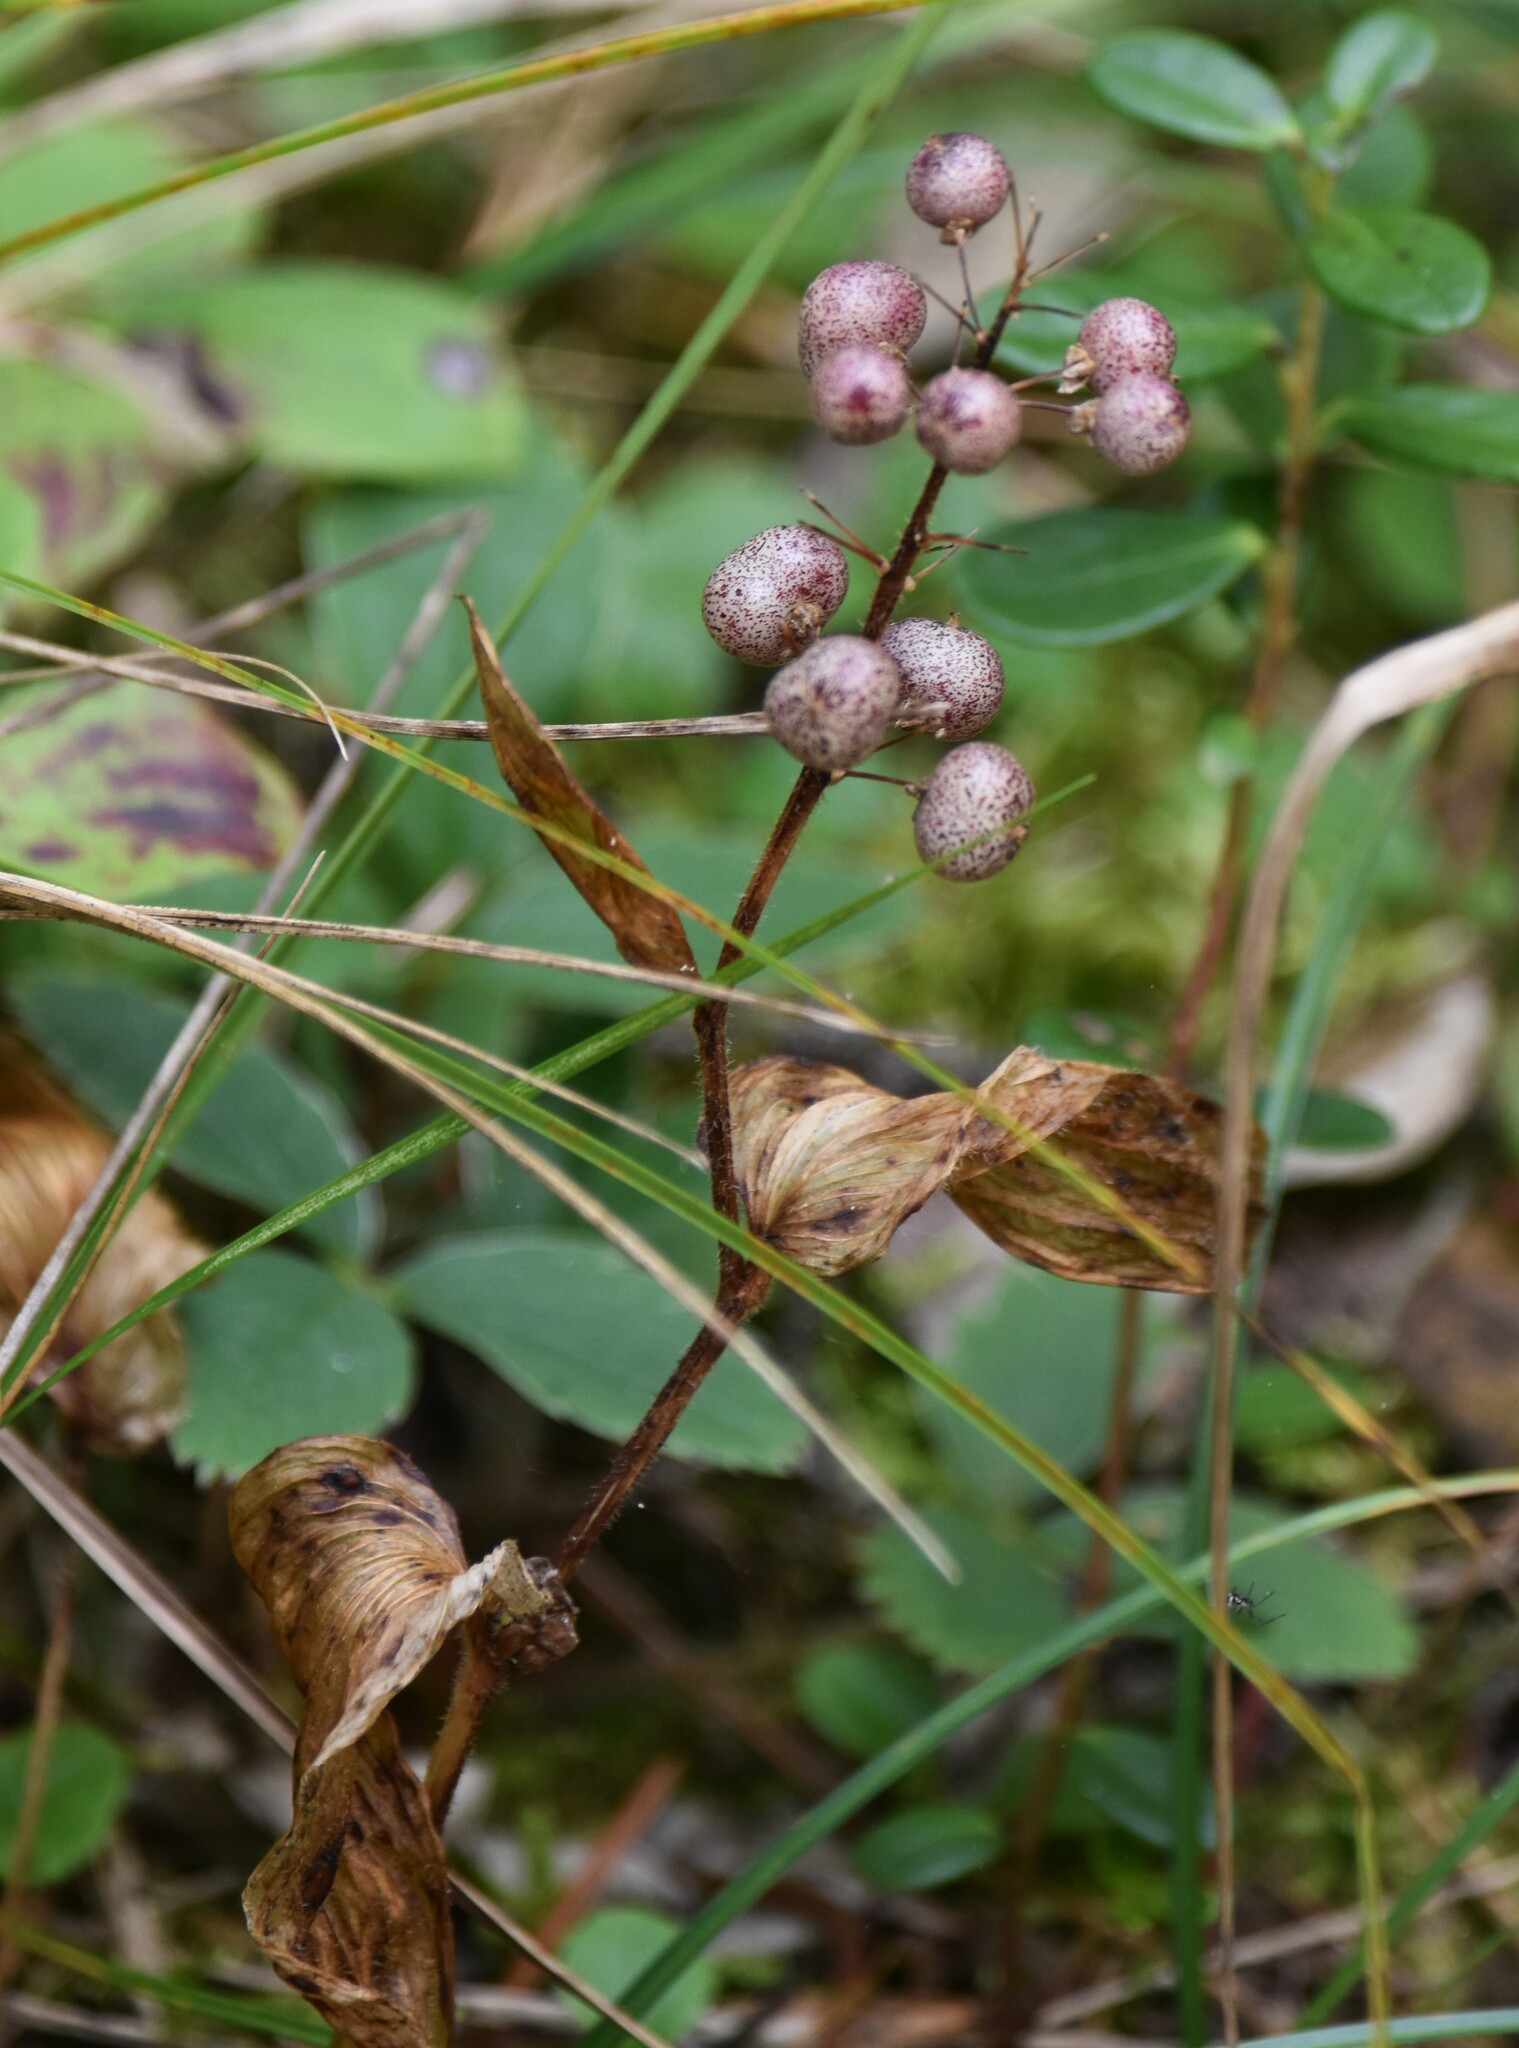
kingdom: Plantae
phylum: Tracheophyta
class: Liliopsida
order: Asparagales
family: Asparagaceae
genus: Maianthemum
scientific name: Maianthemum canadense
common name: False lily-of-the-valley
